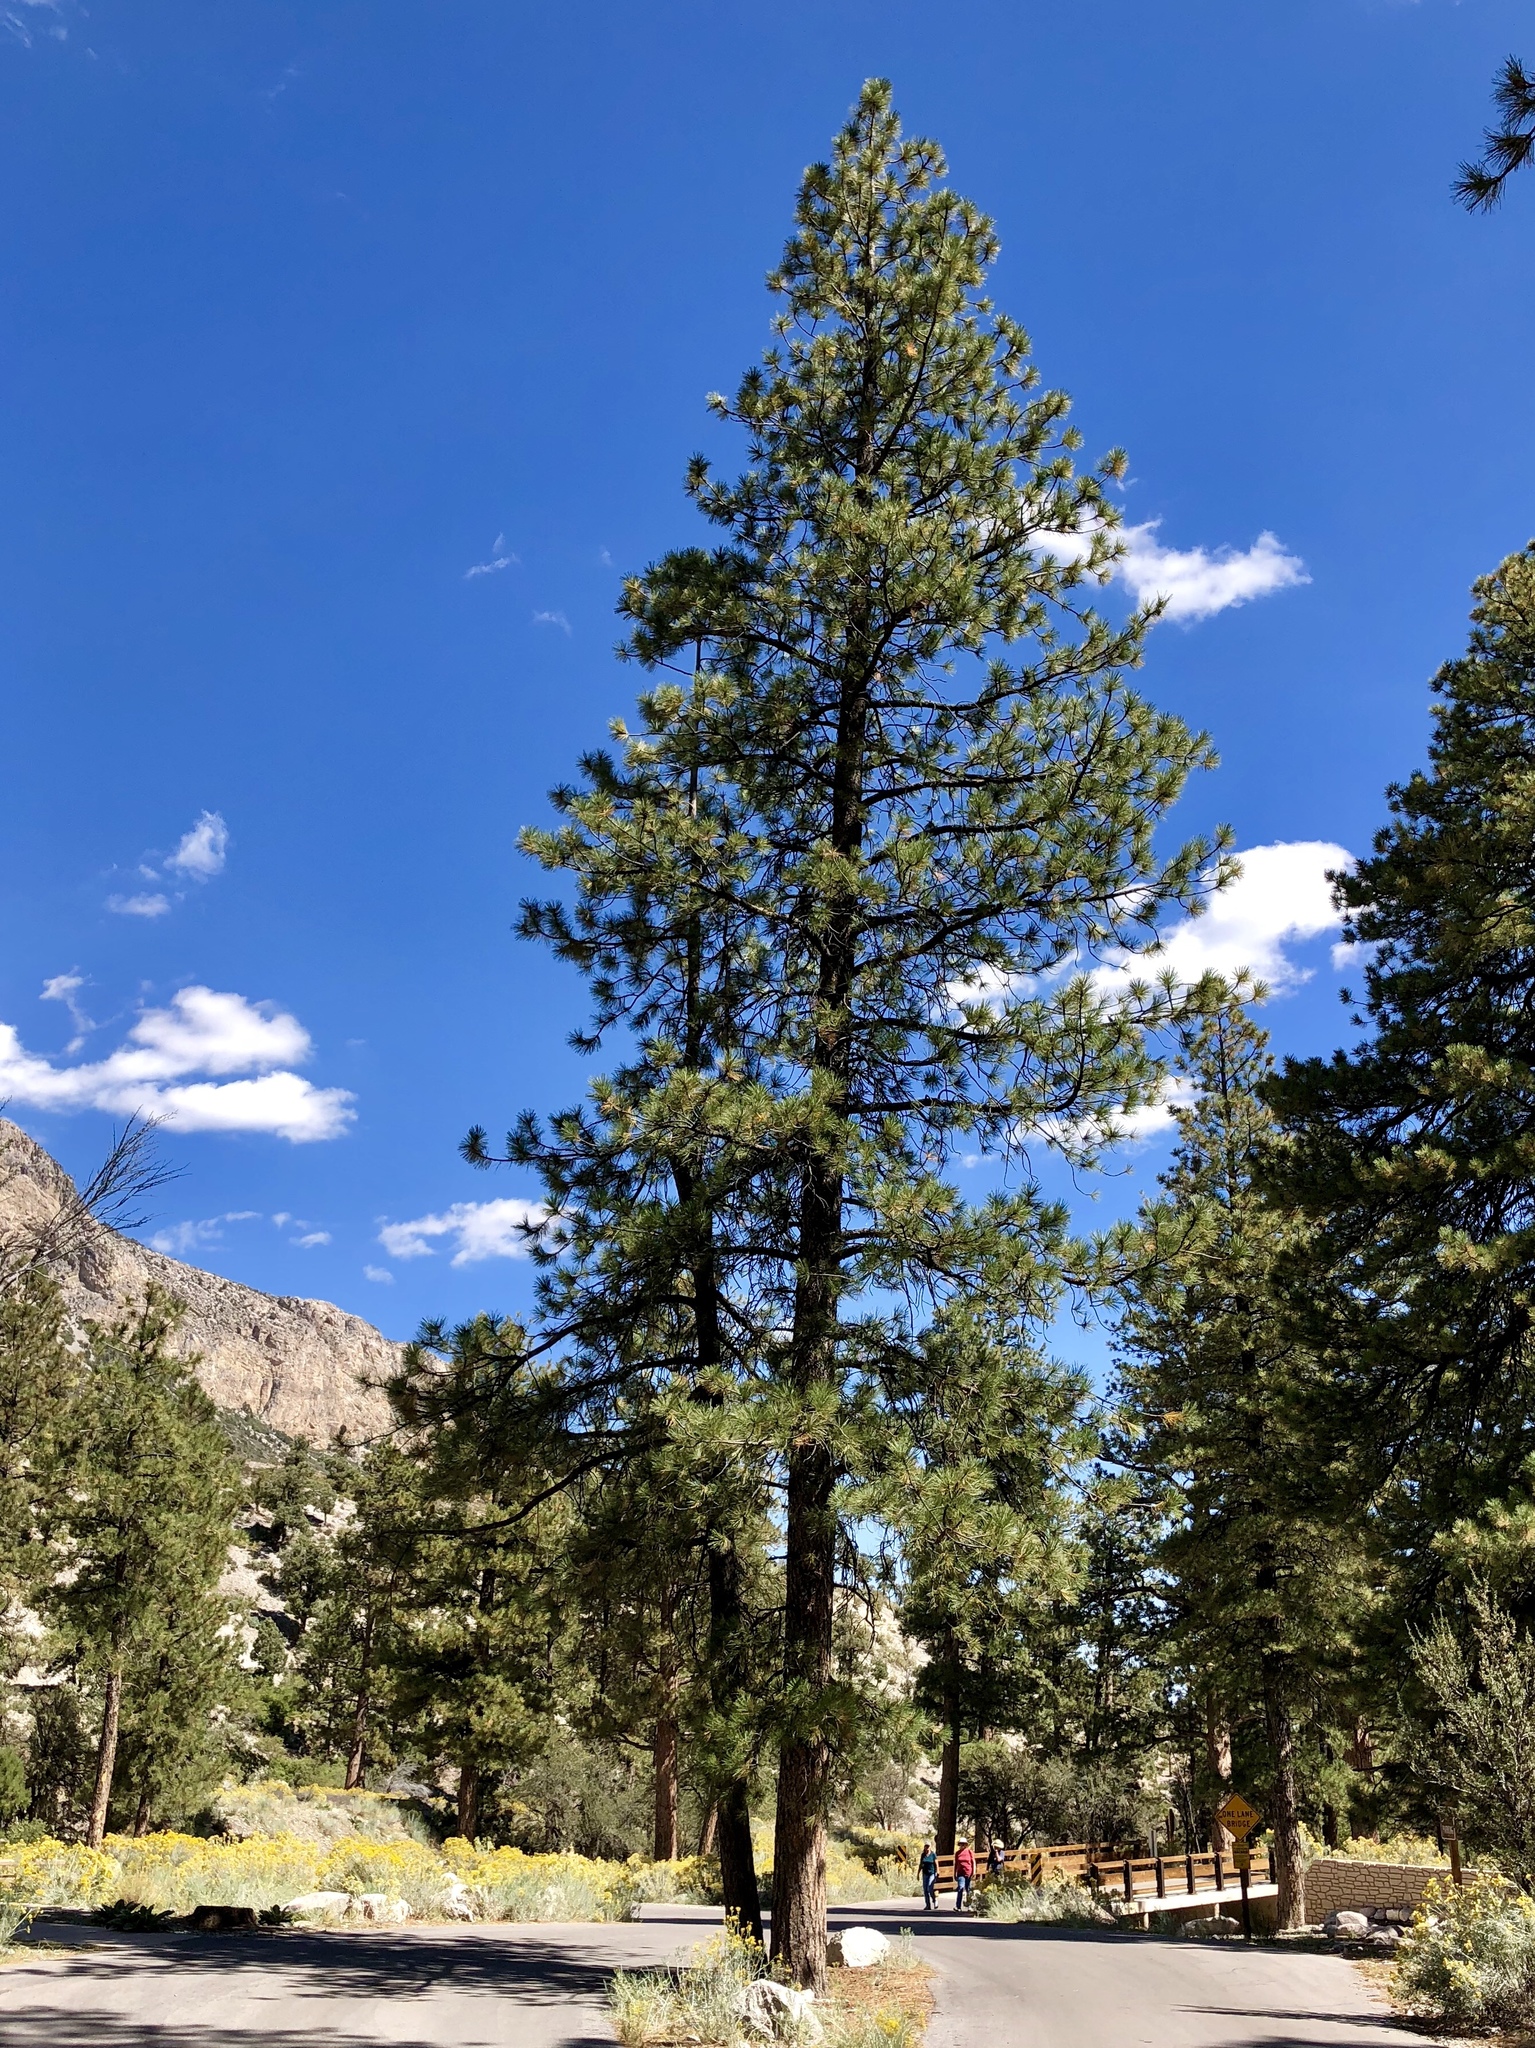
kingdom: Plantae
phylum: Tracheophyta
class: Pinopsida
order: Pinales
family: Pinaceae
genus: Pinus
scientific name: Pinus ponderosa
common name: Western yellow-pine
